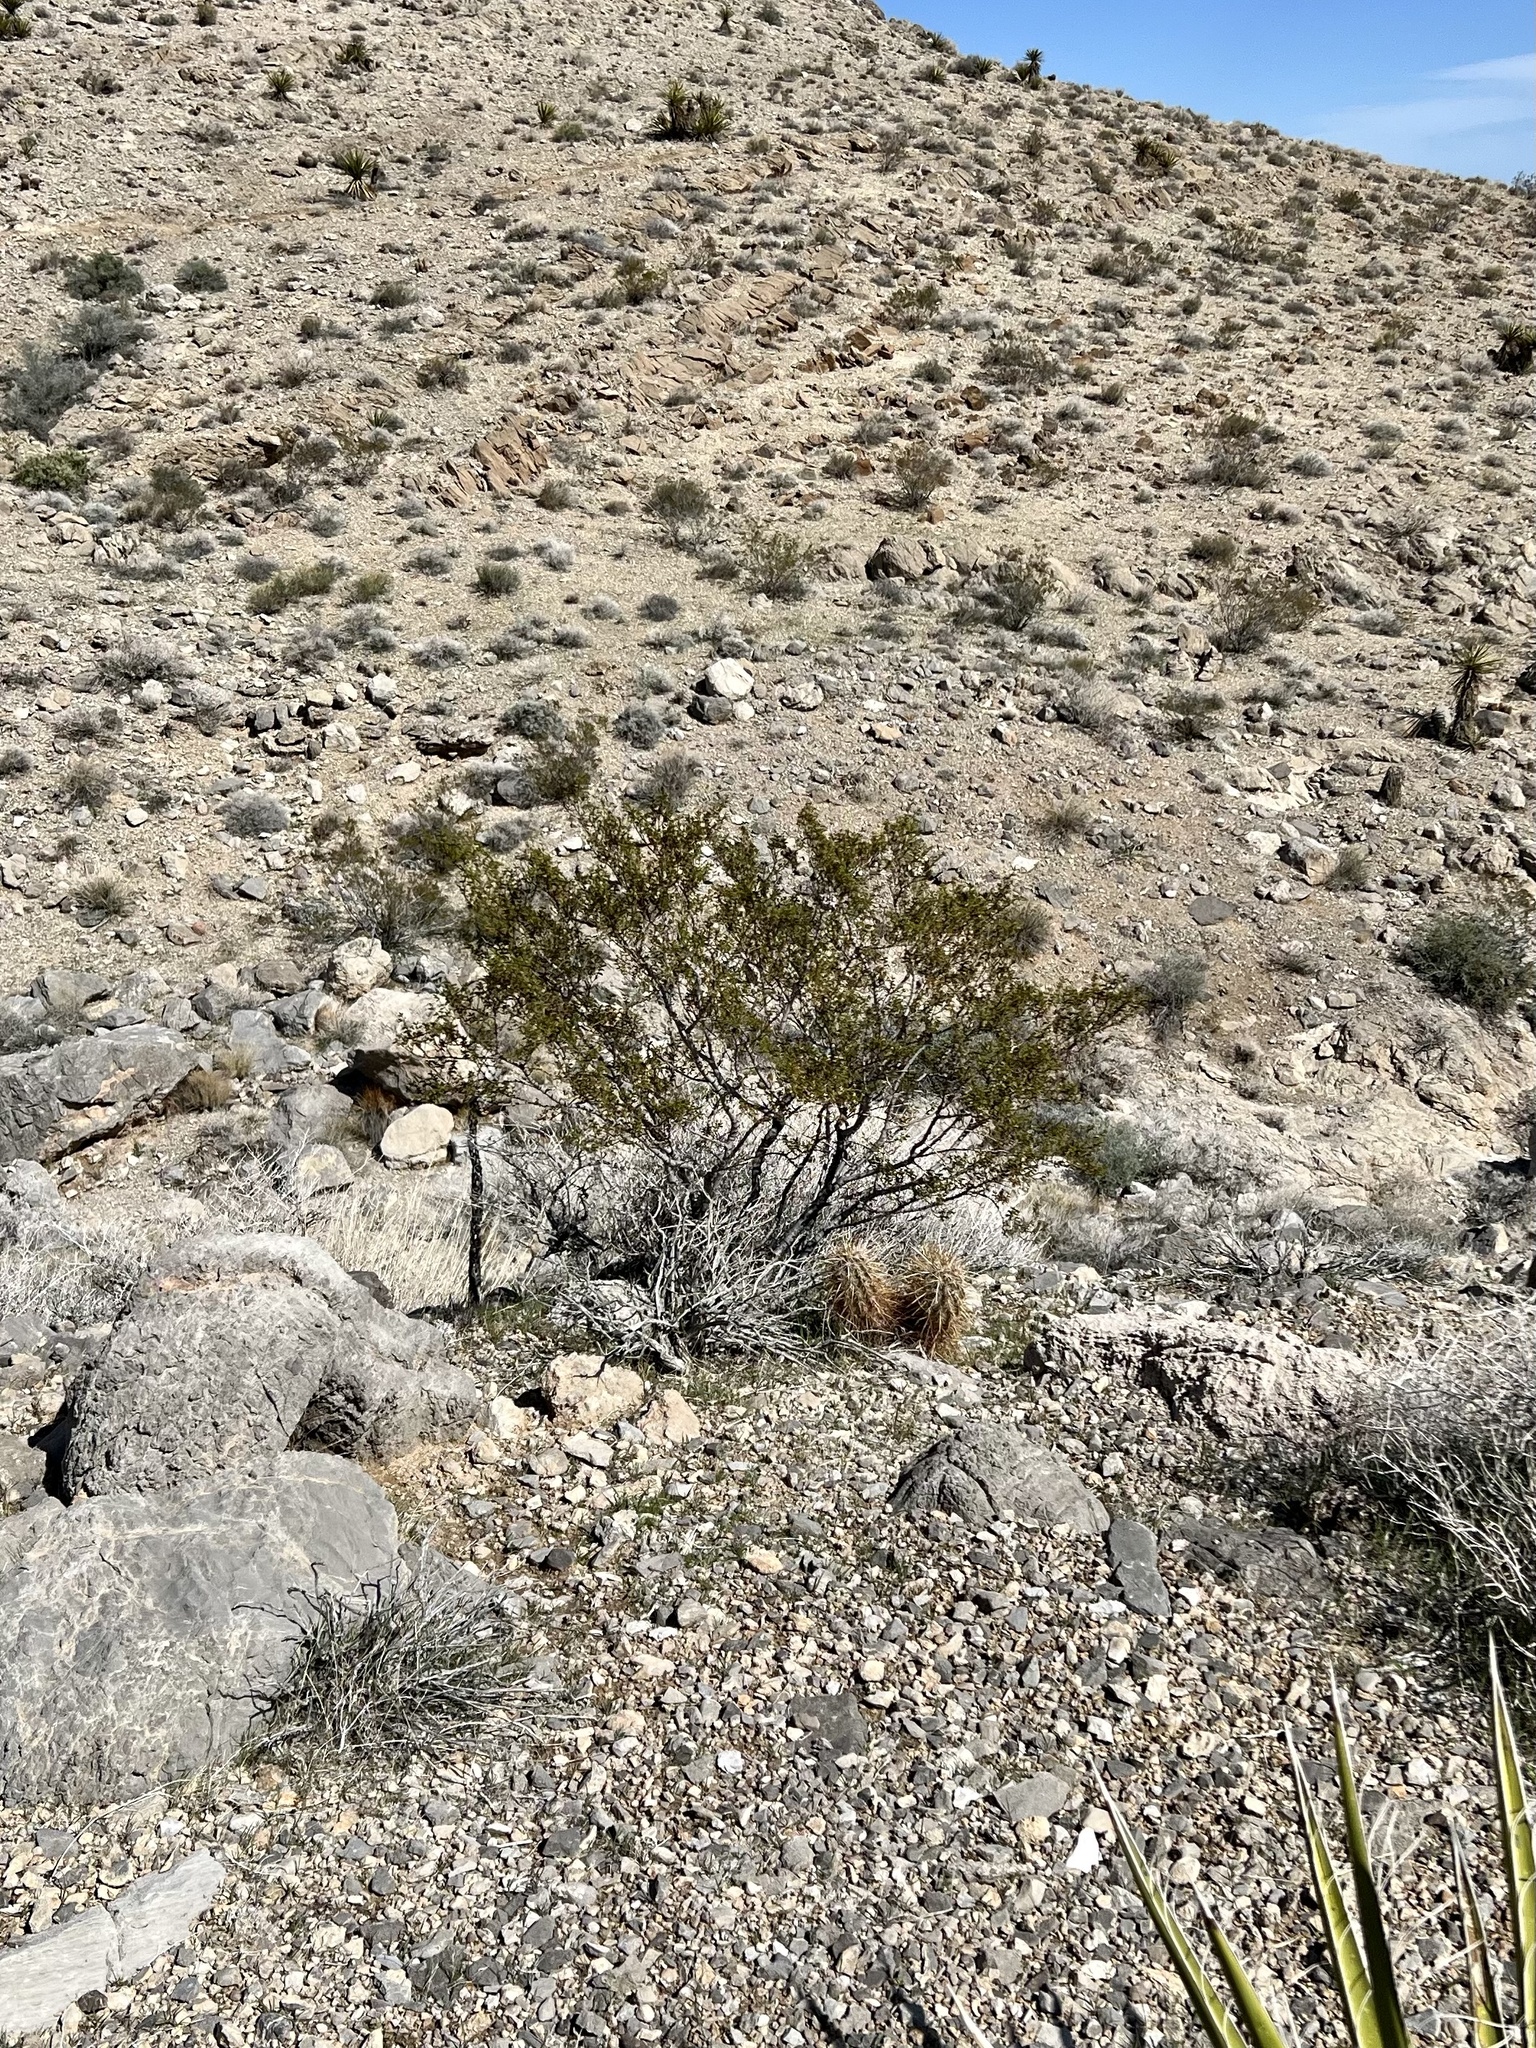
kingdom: Plantae
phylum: Tracheophyta
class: Magnoliopsida
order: Zygophyllales
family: Zygophyllaceae
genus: Larrea
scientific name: Larrea tridentata
